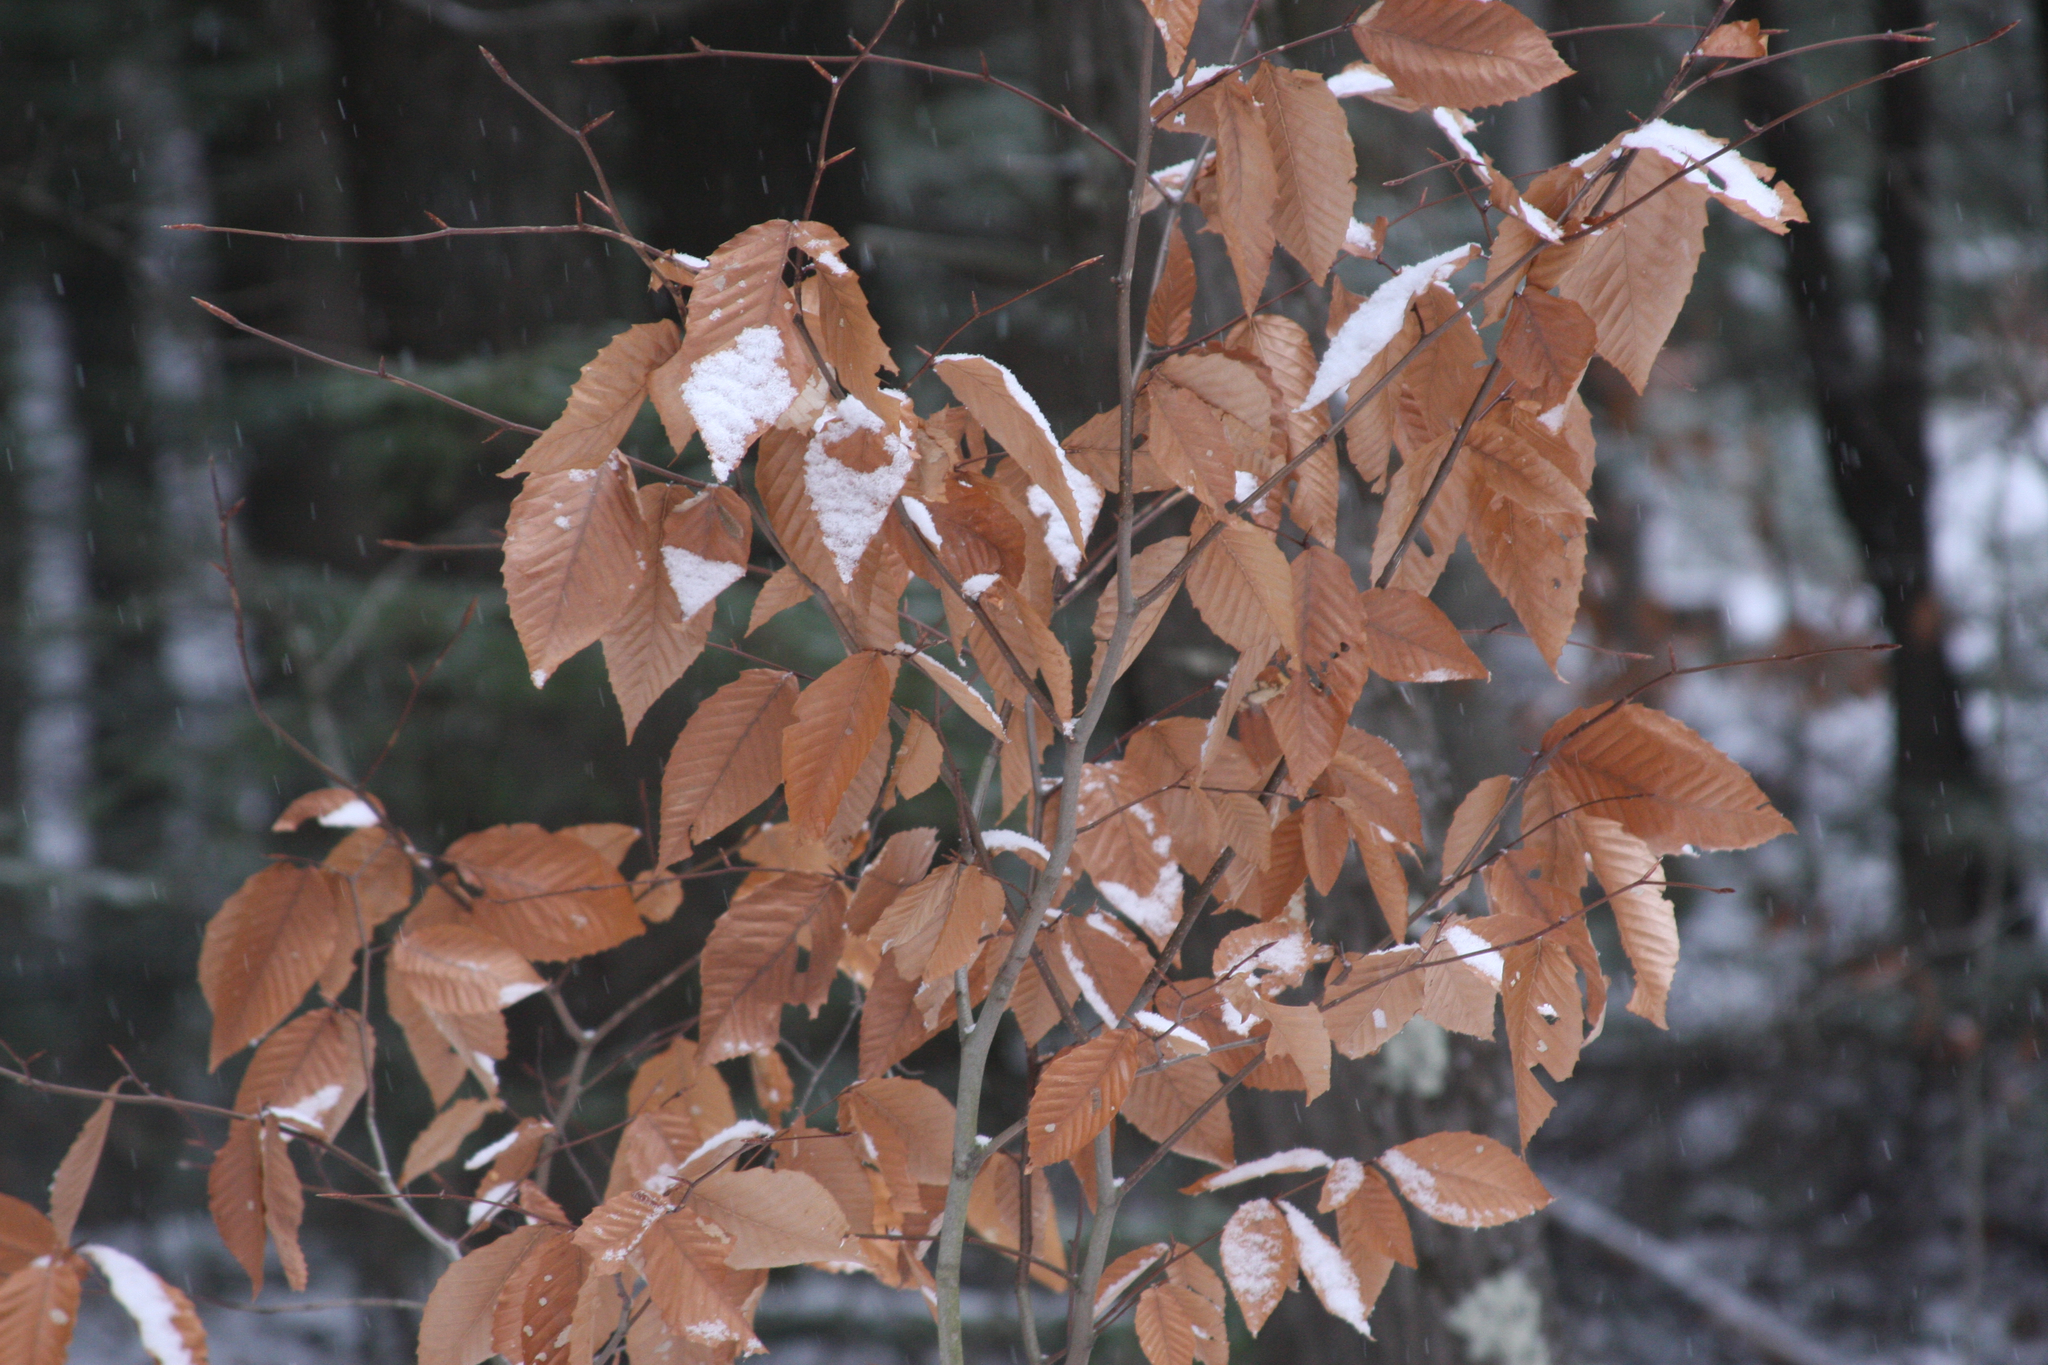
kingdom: Plantae
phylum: Tracheophyta
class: Magnoliopsida
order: Fagales
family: Fagaceae
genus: Fagus
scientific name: Fagus grandifolia
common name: American beech
